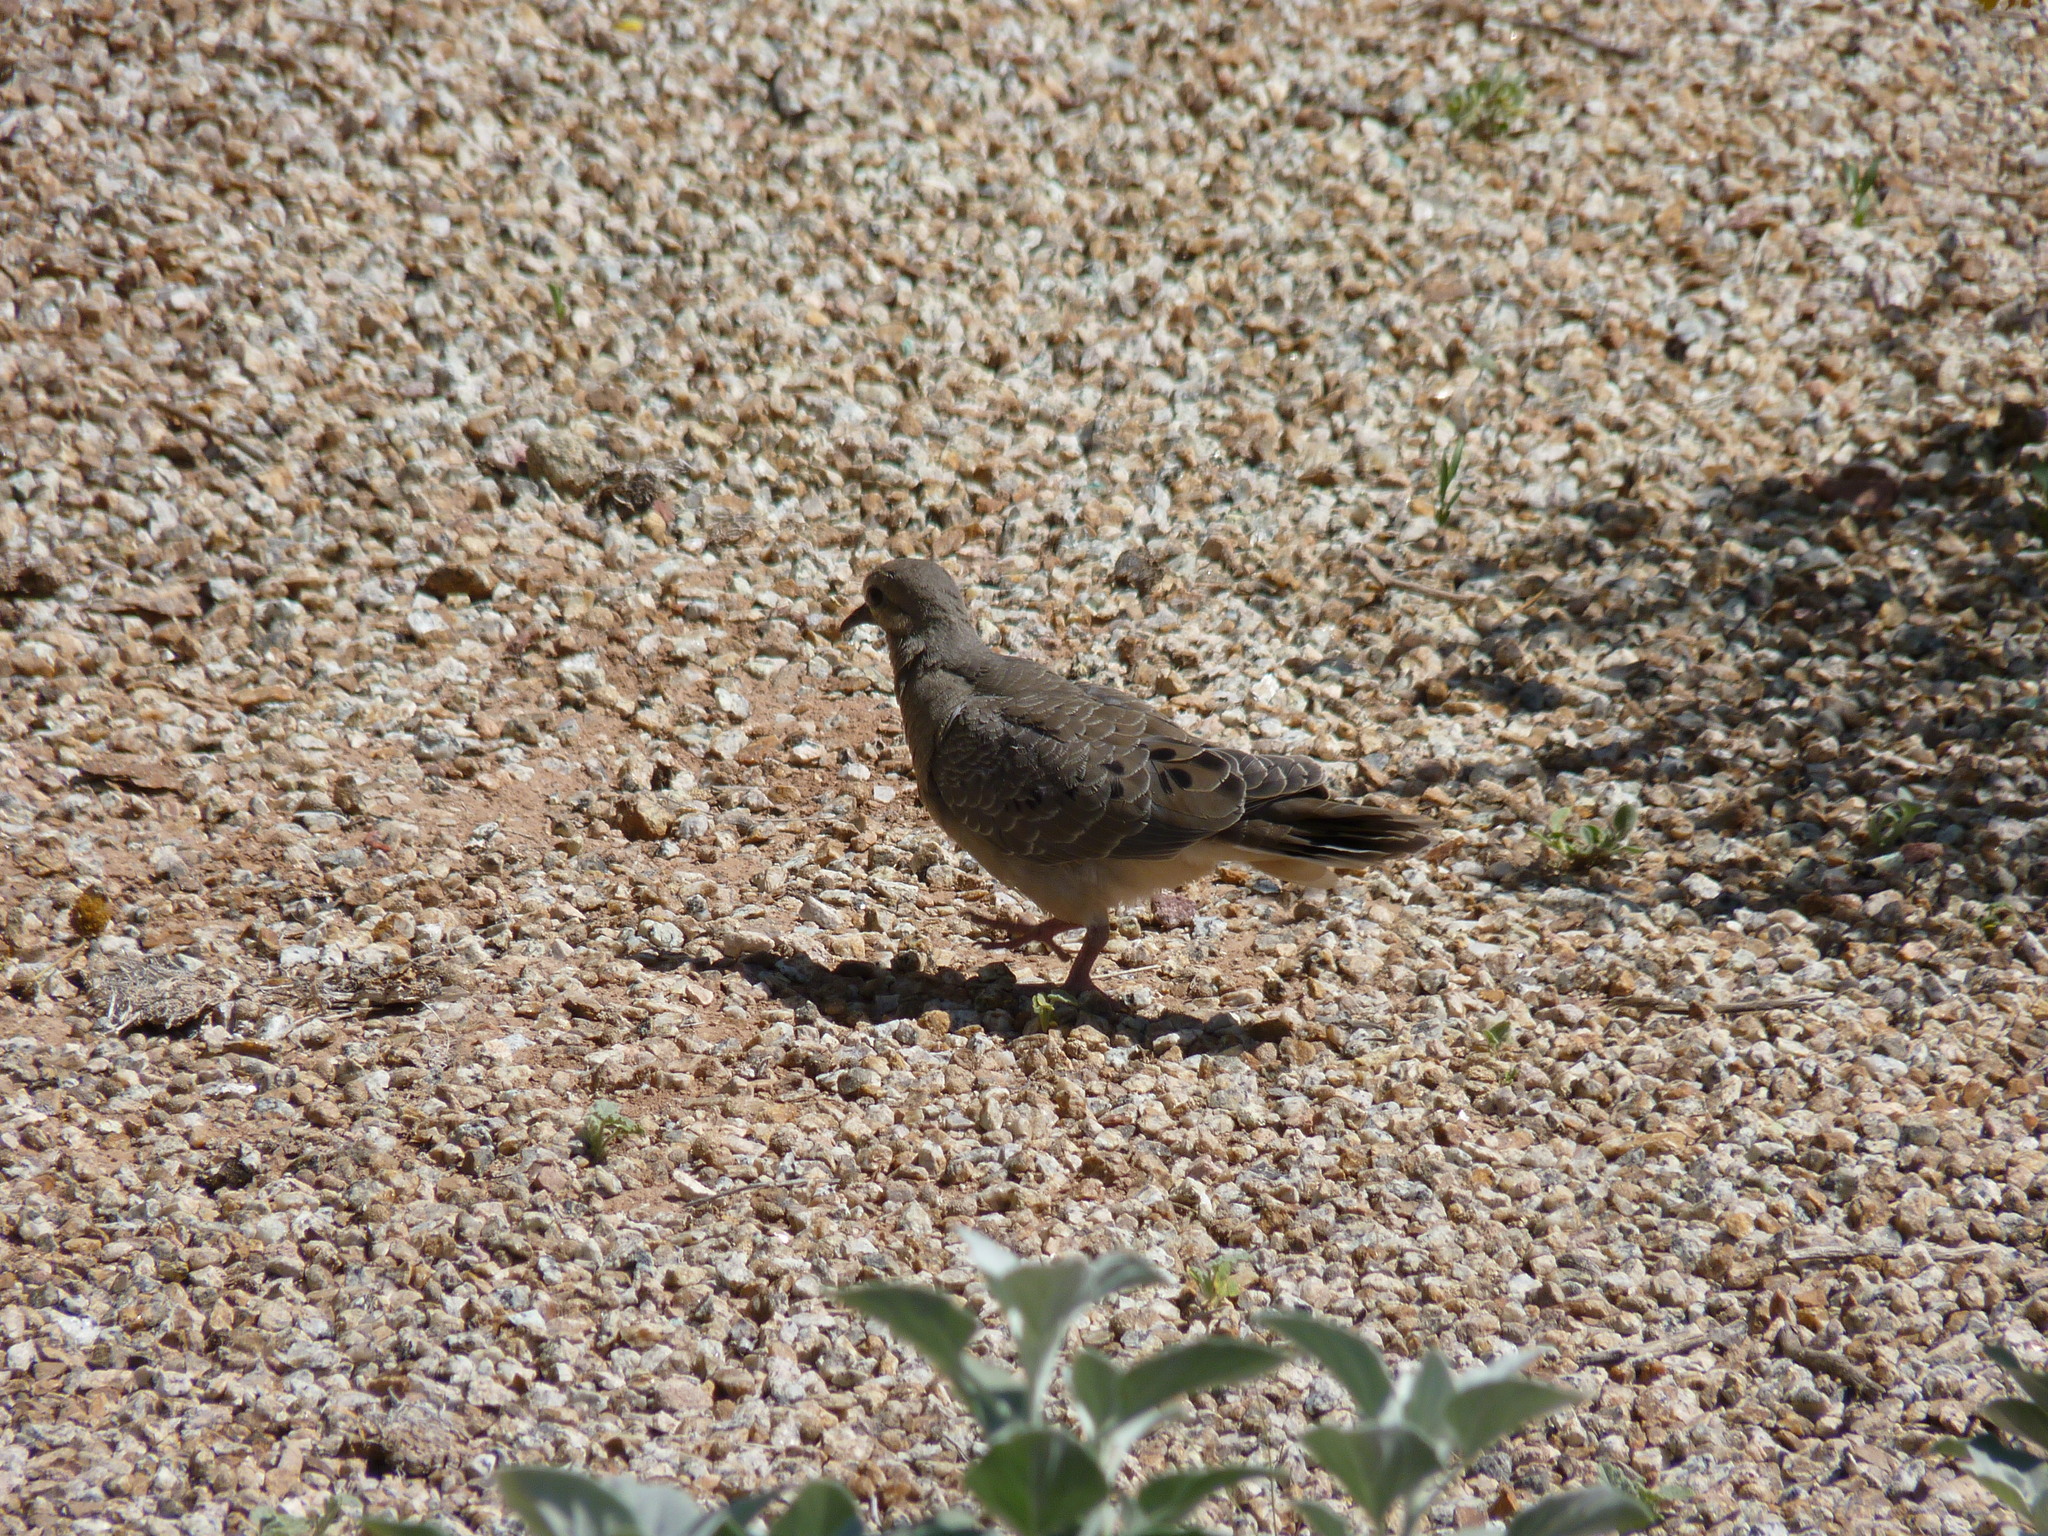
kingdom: Animalia
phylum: Chordata
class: Aves
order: Columbiformes
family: Columbidae
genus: Zenaida
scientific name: Zenaida macroura
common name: Mourning dove
